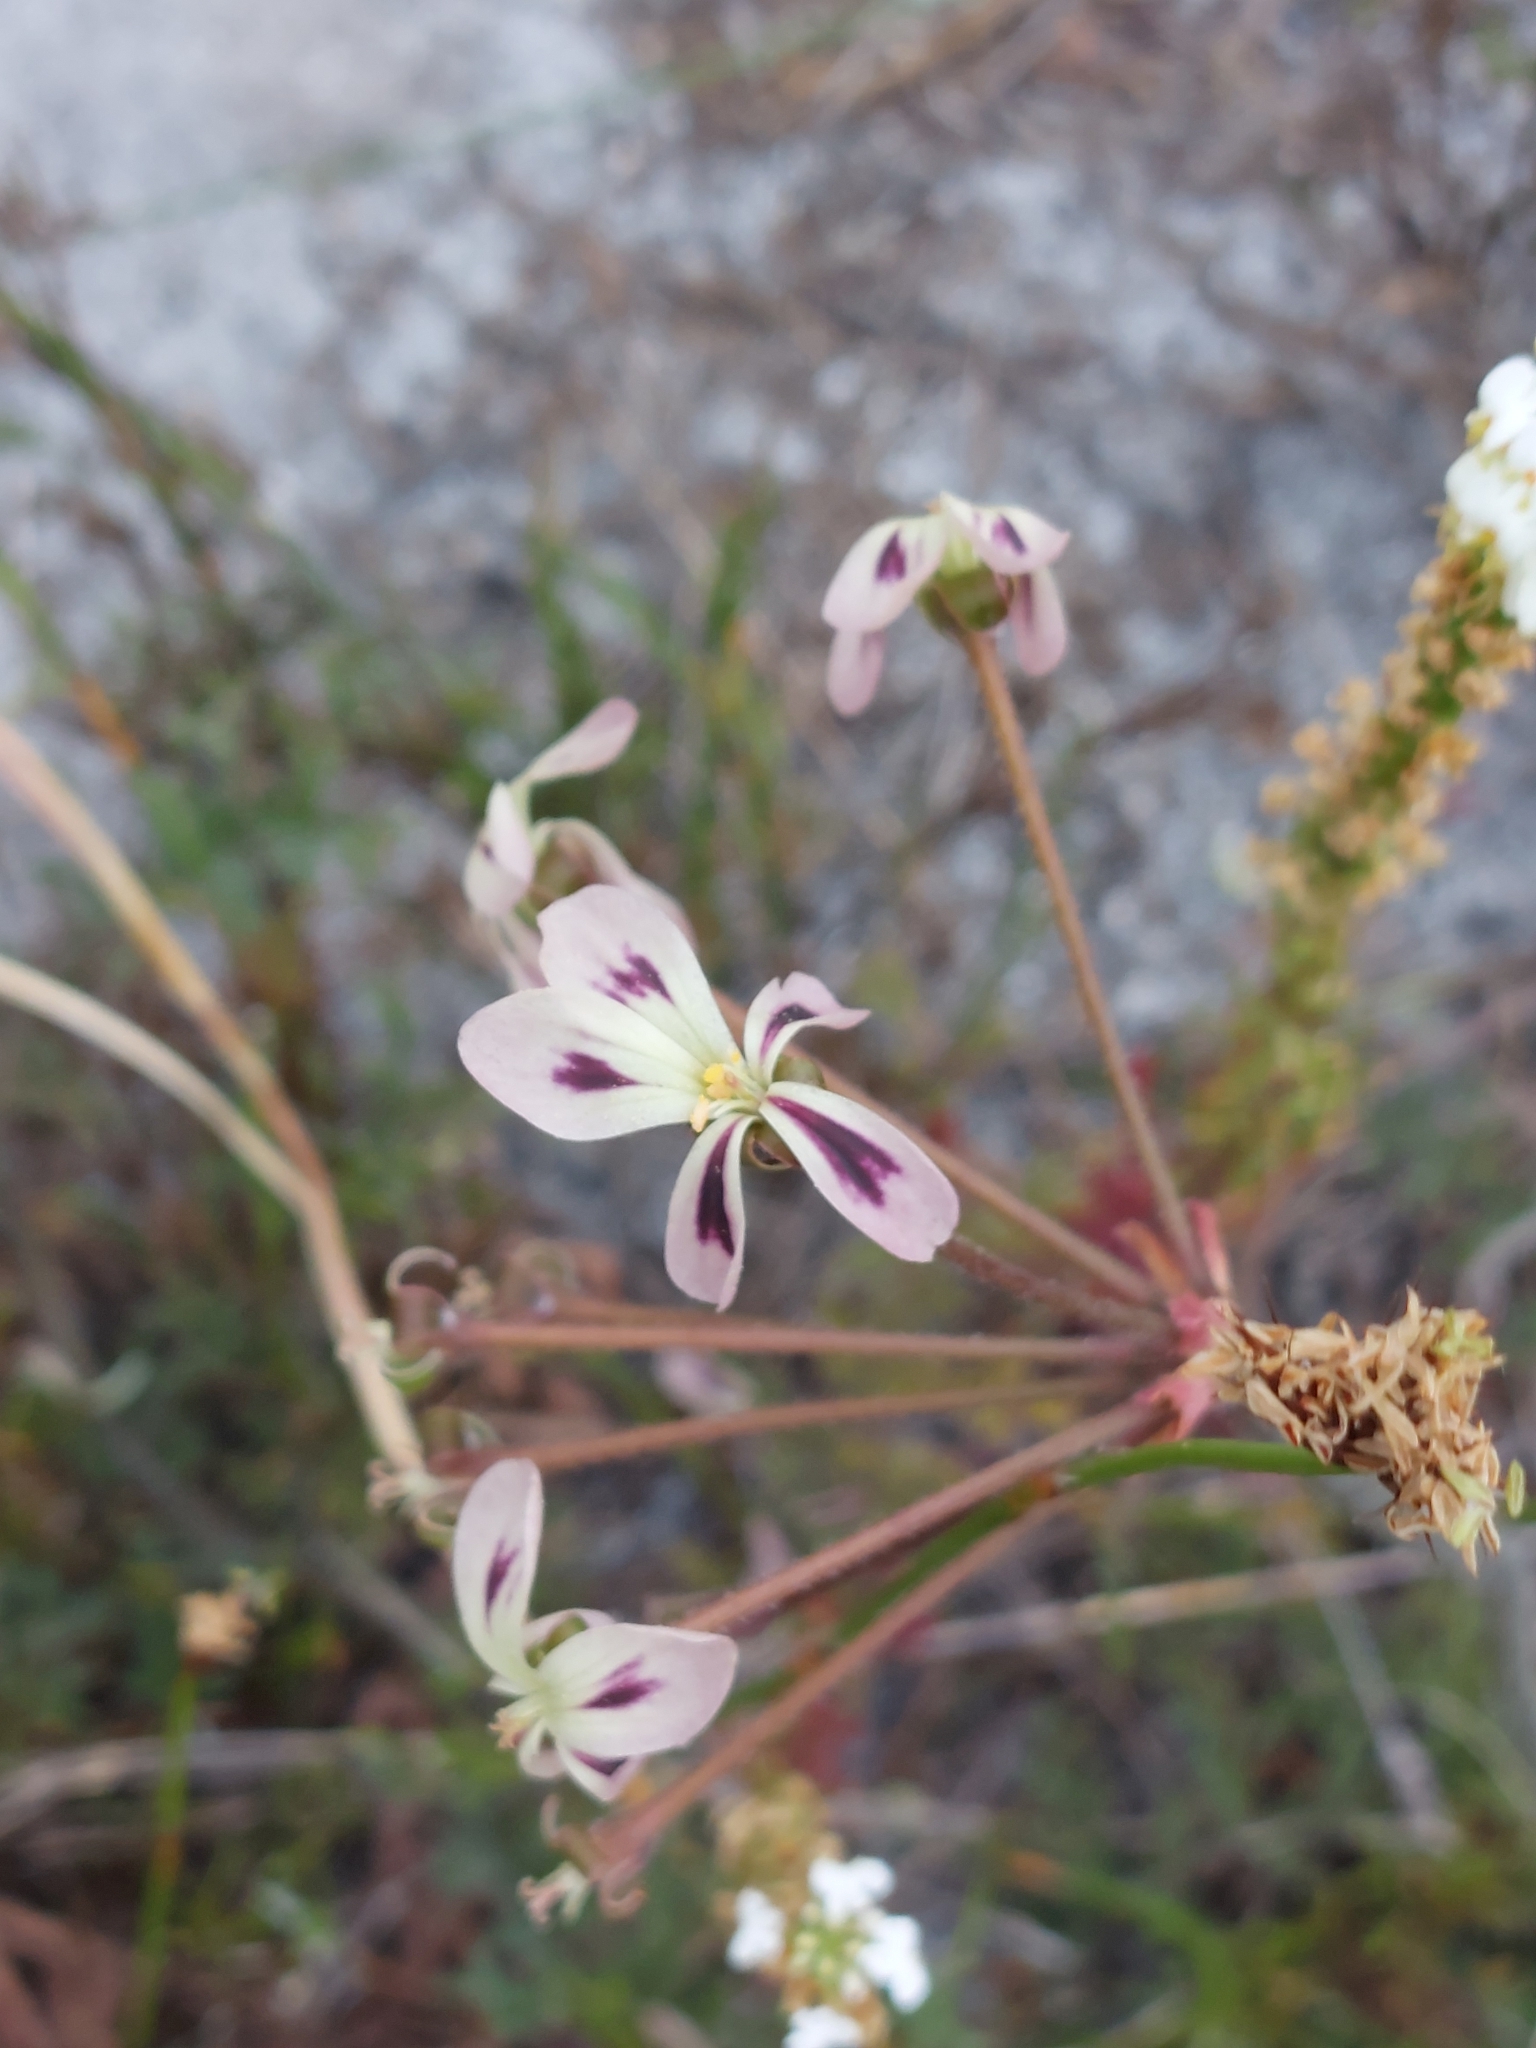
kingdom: Plantae
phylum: Tracheophyta
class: Magnoliopsida
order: Geraniales
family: Geraniaceae
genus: Pelargonium
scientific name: Pelargonium triste
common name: Night-scent pelargonium
